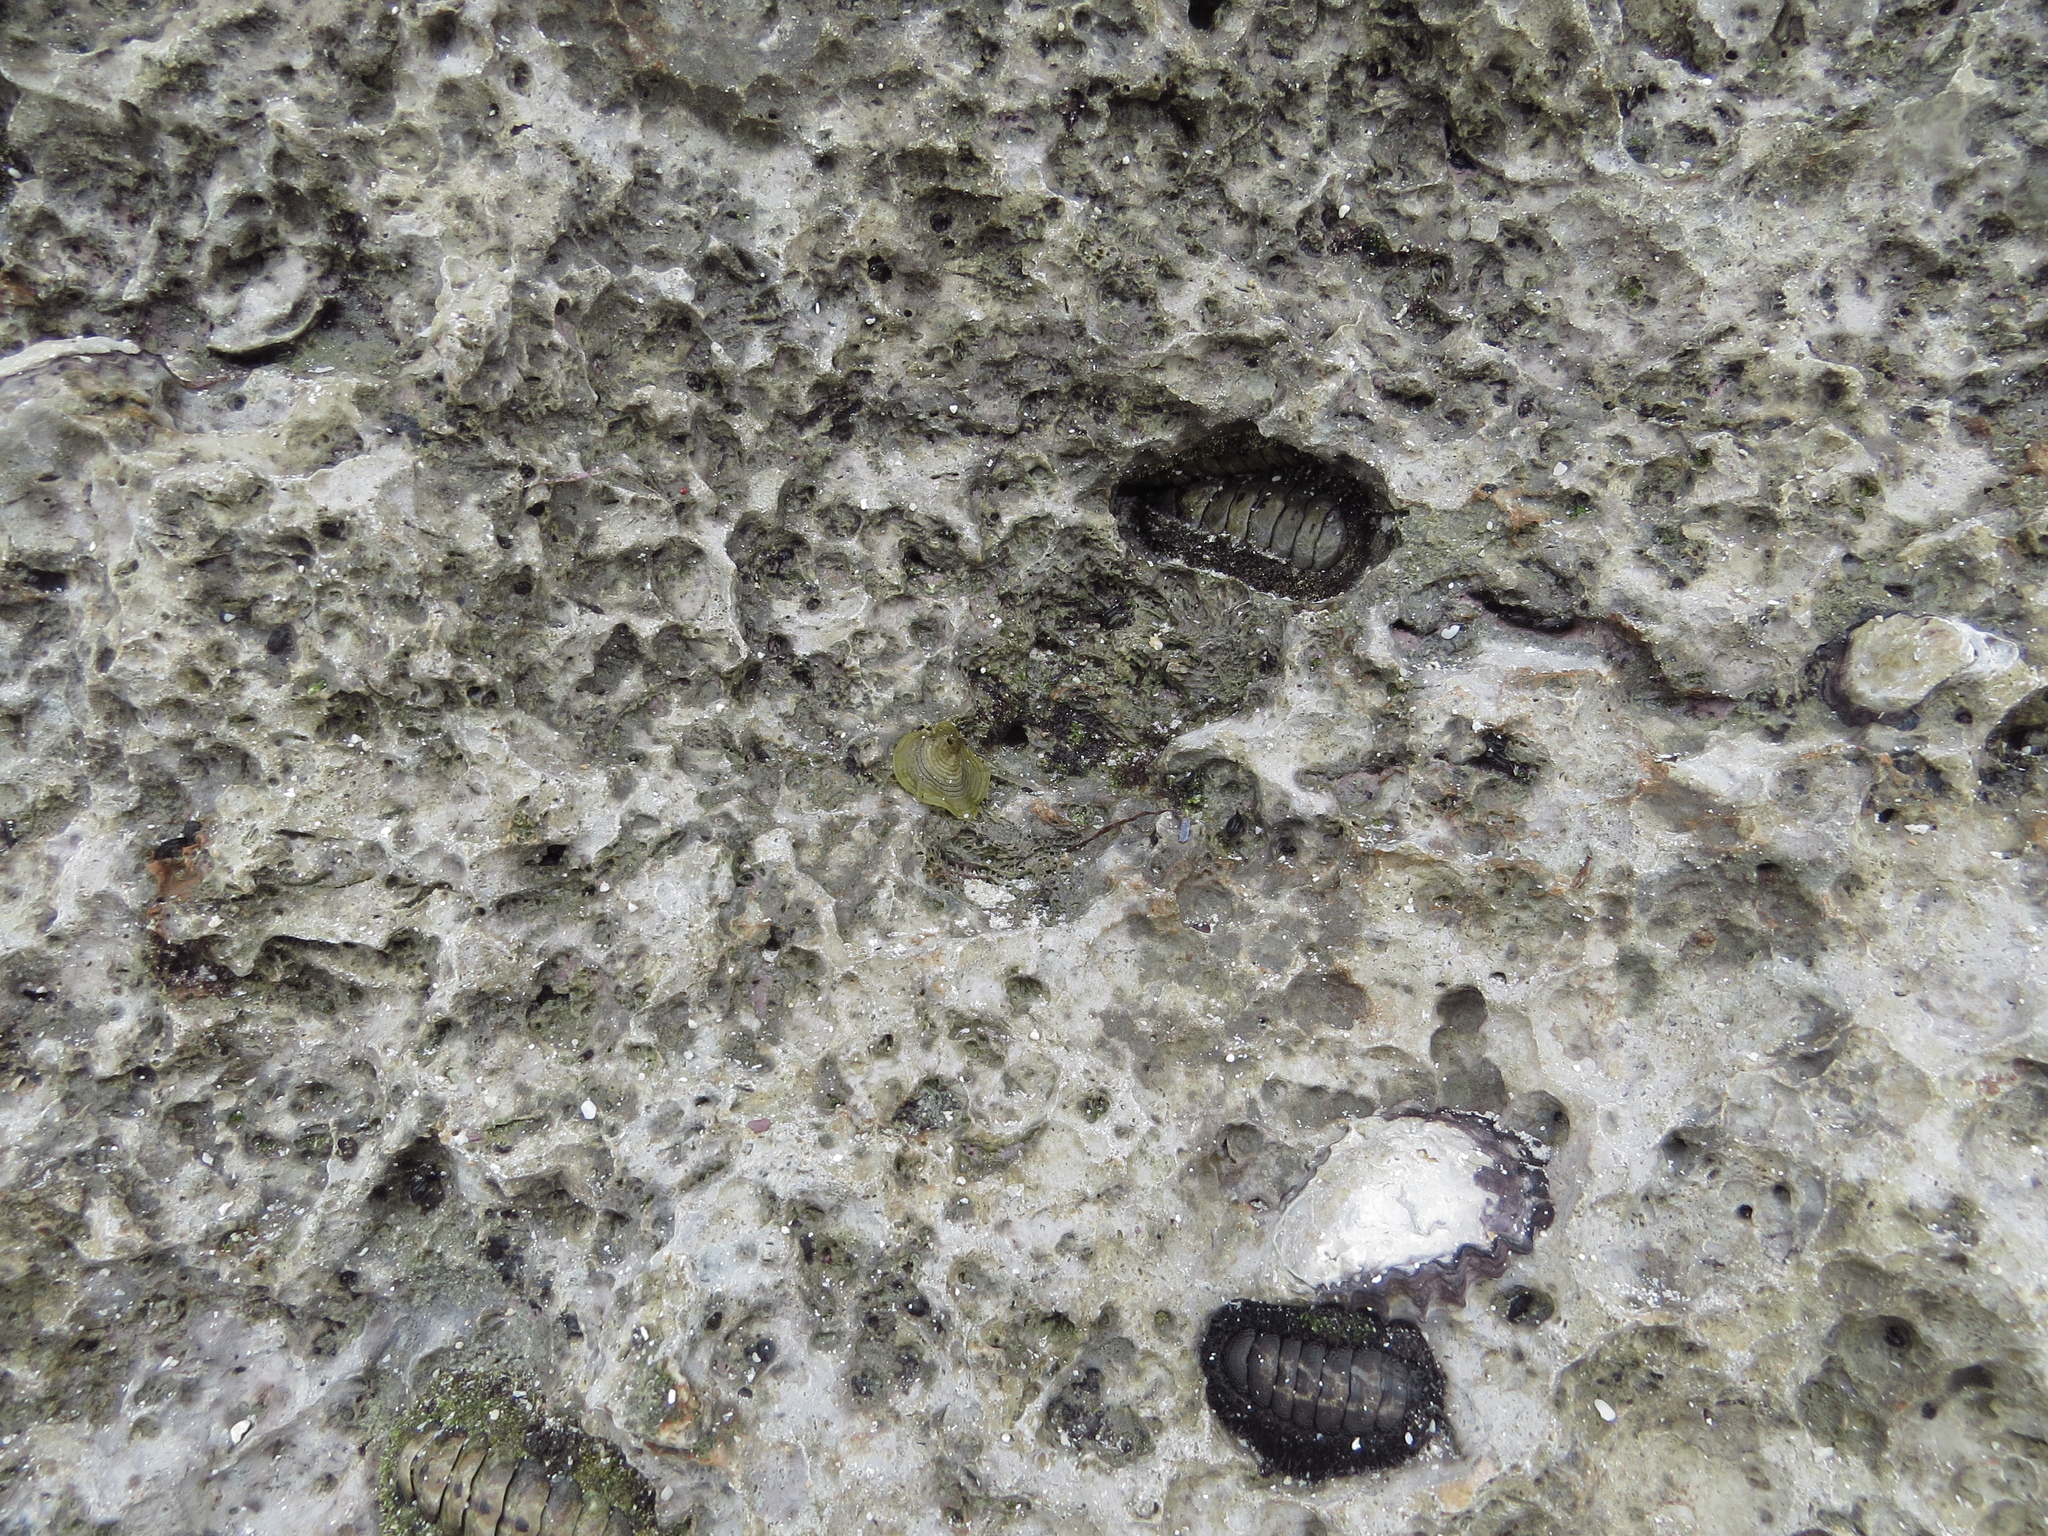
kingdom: Animalia
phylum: Mollusca
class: Polyplacophora
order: Chitonida
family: Chitonidae
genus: Acanthopleura
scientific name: Acanthopleura vaillantii
